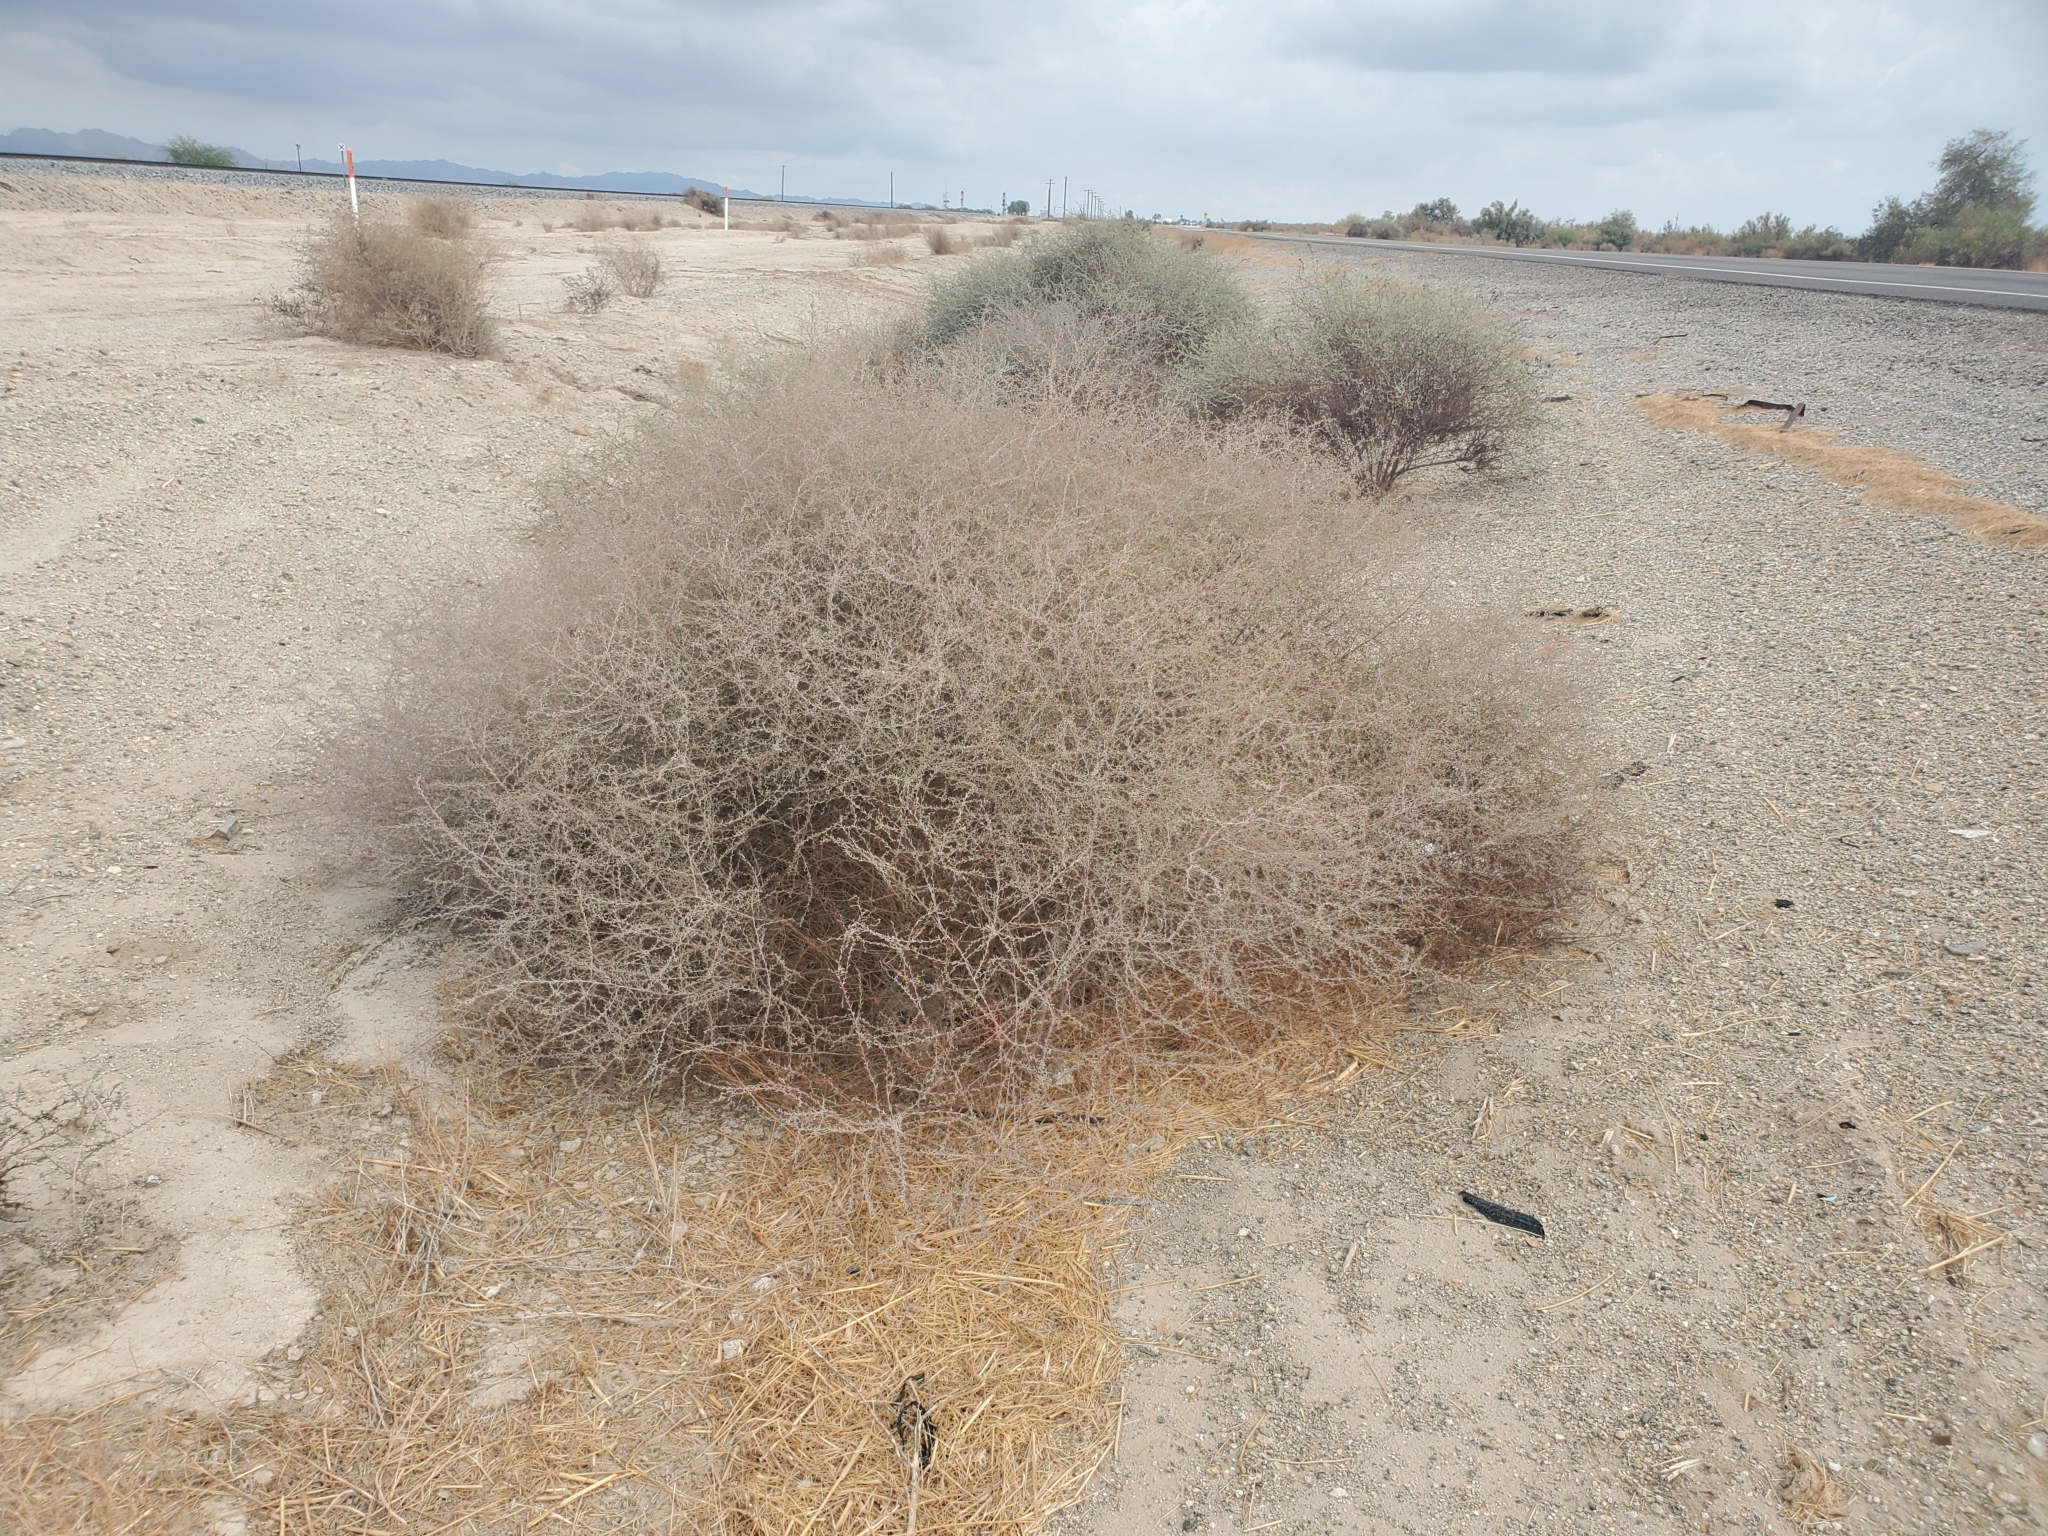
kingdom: Plantae
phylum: Tracheophyta
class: Magnoliopsida
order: Caryophyllales
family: Amaranthaceae
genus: Suaeda
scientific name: Suaeda nigra
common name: Bush seepweed
